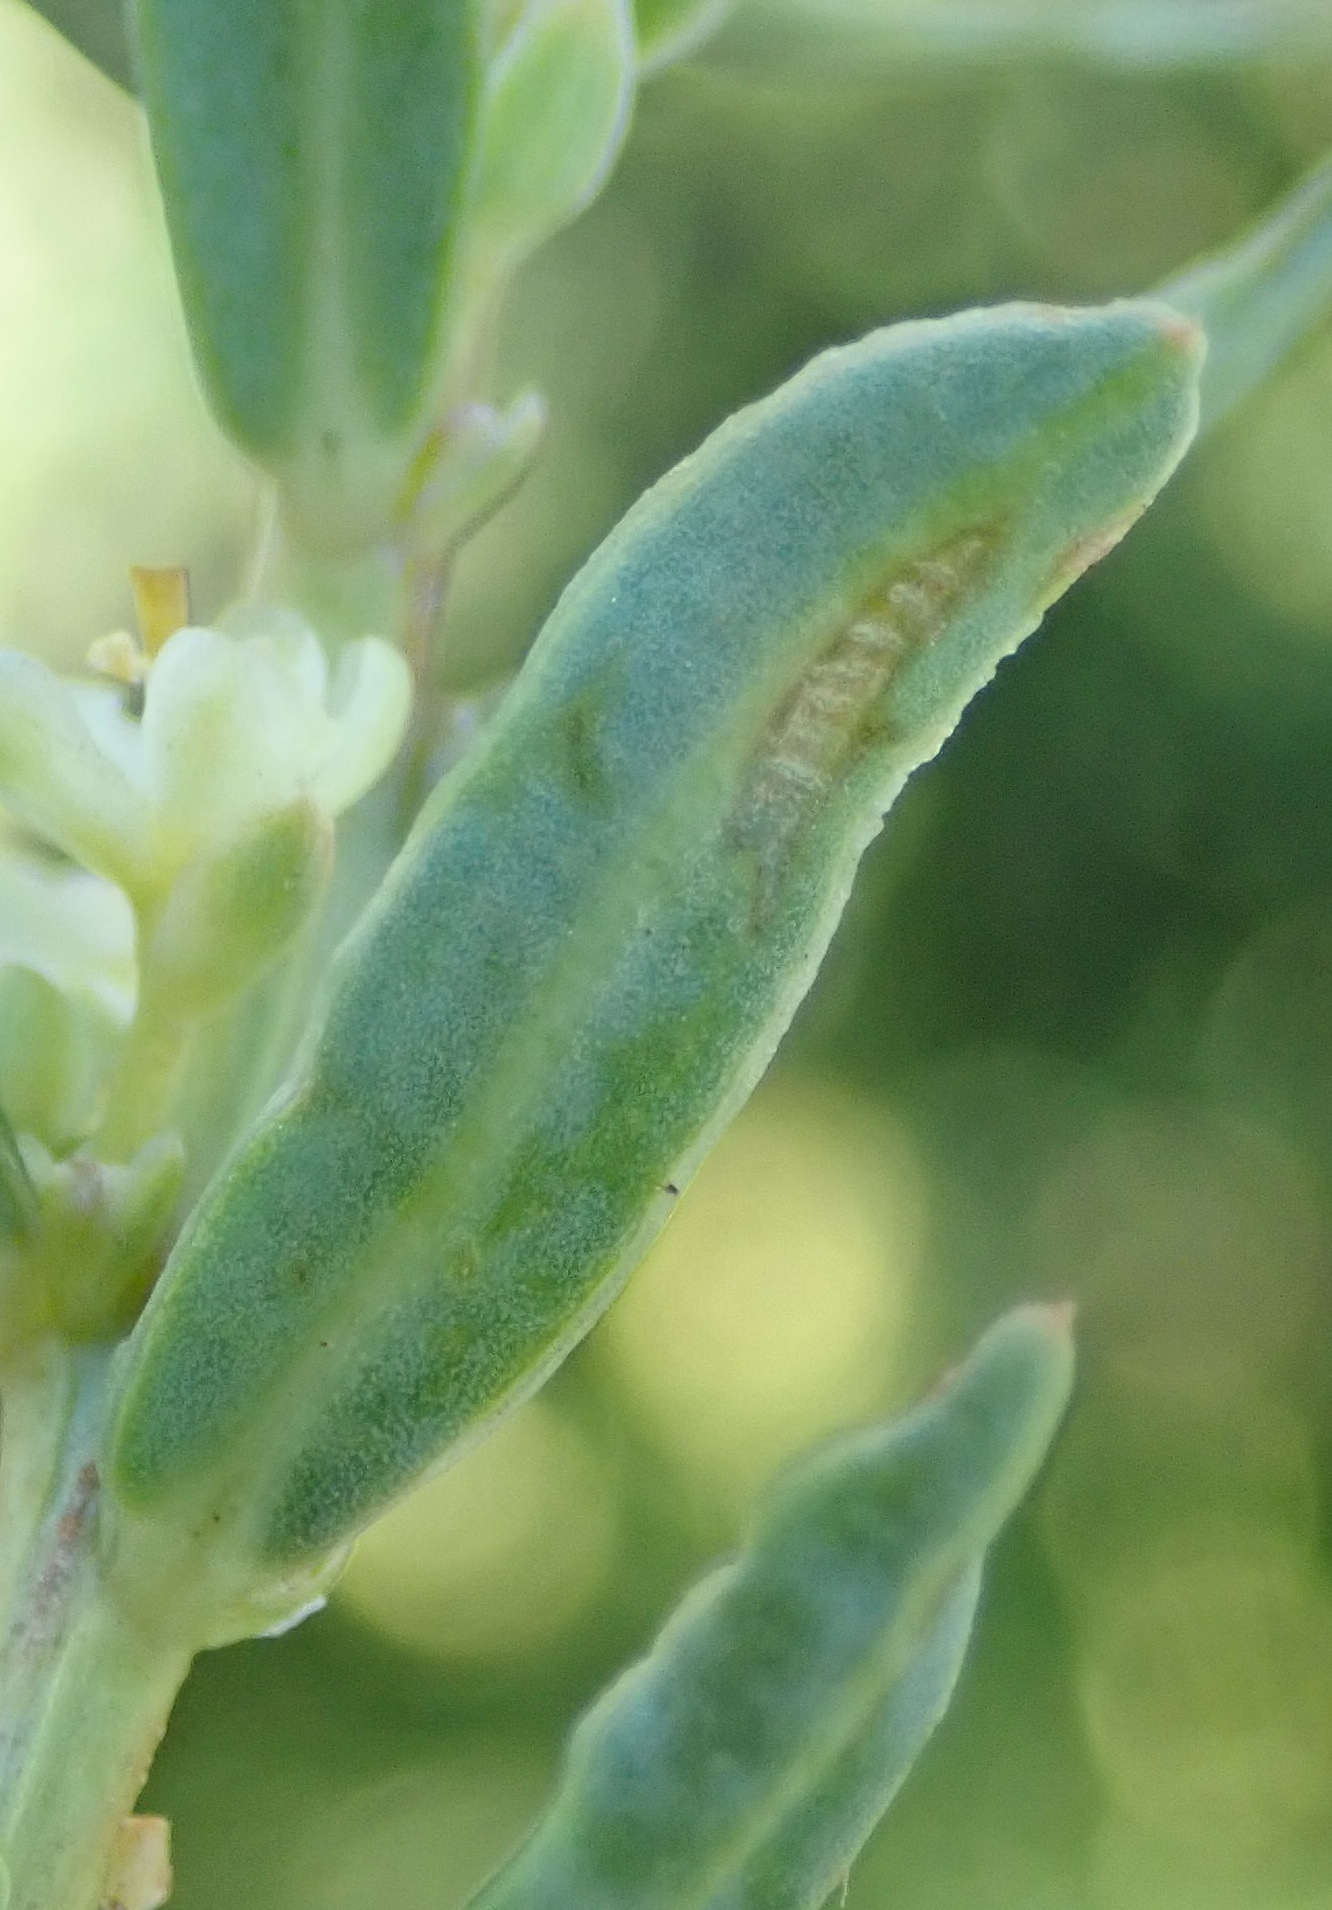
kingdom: Plantae
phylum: Tracheophyta
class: Magnoliopsida
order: Malpighiales
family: Peraceae
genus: Clutia
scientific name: Clutia daphnoides
